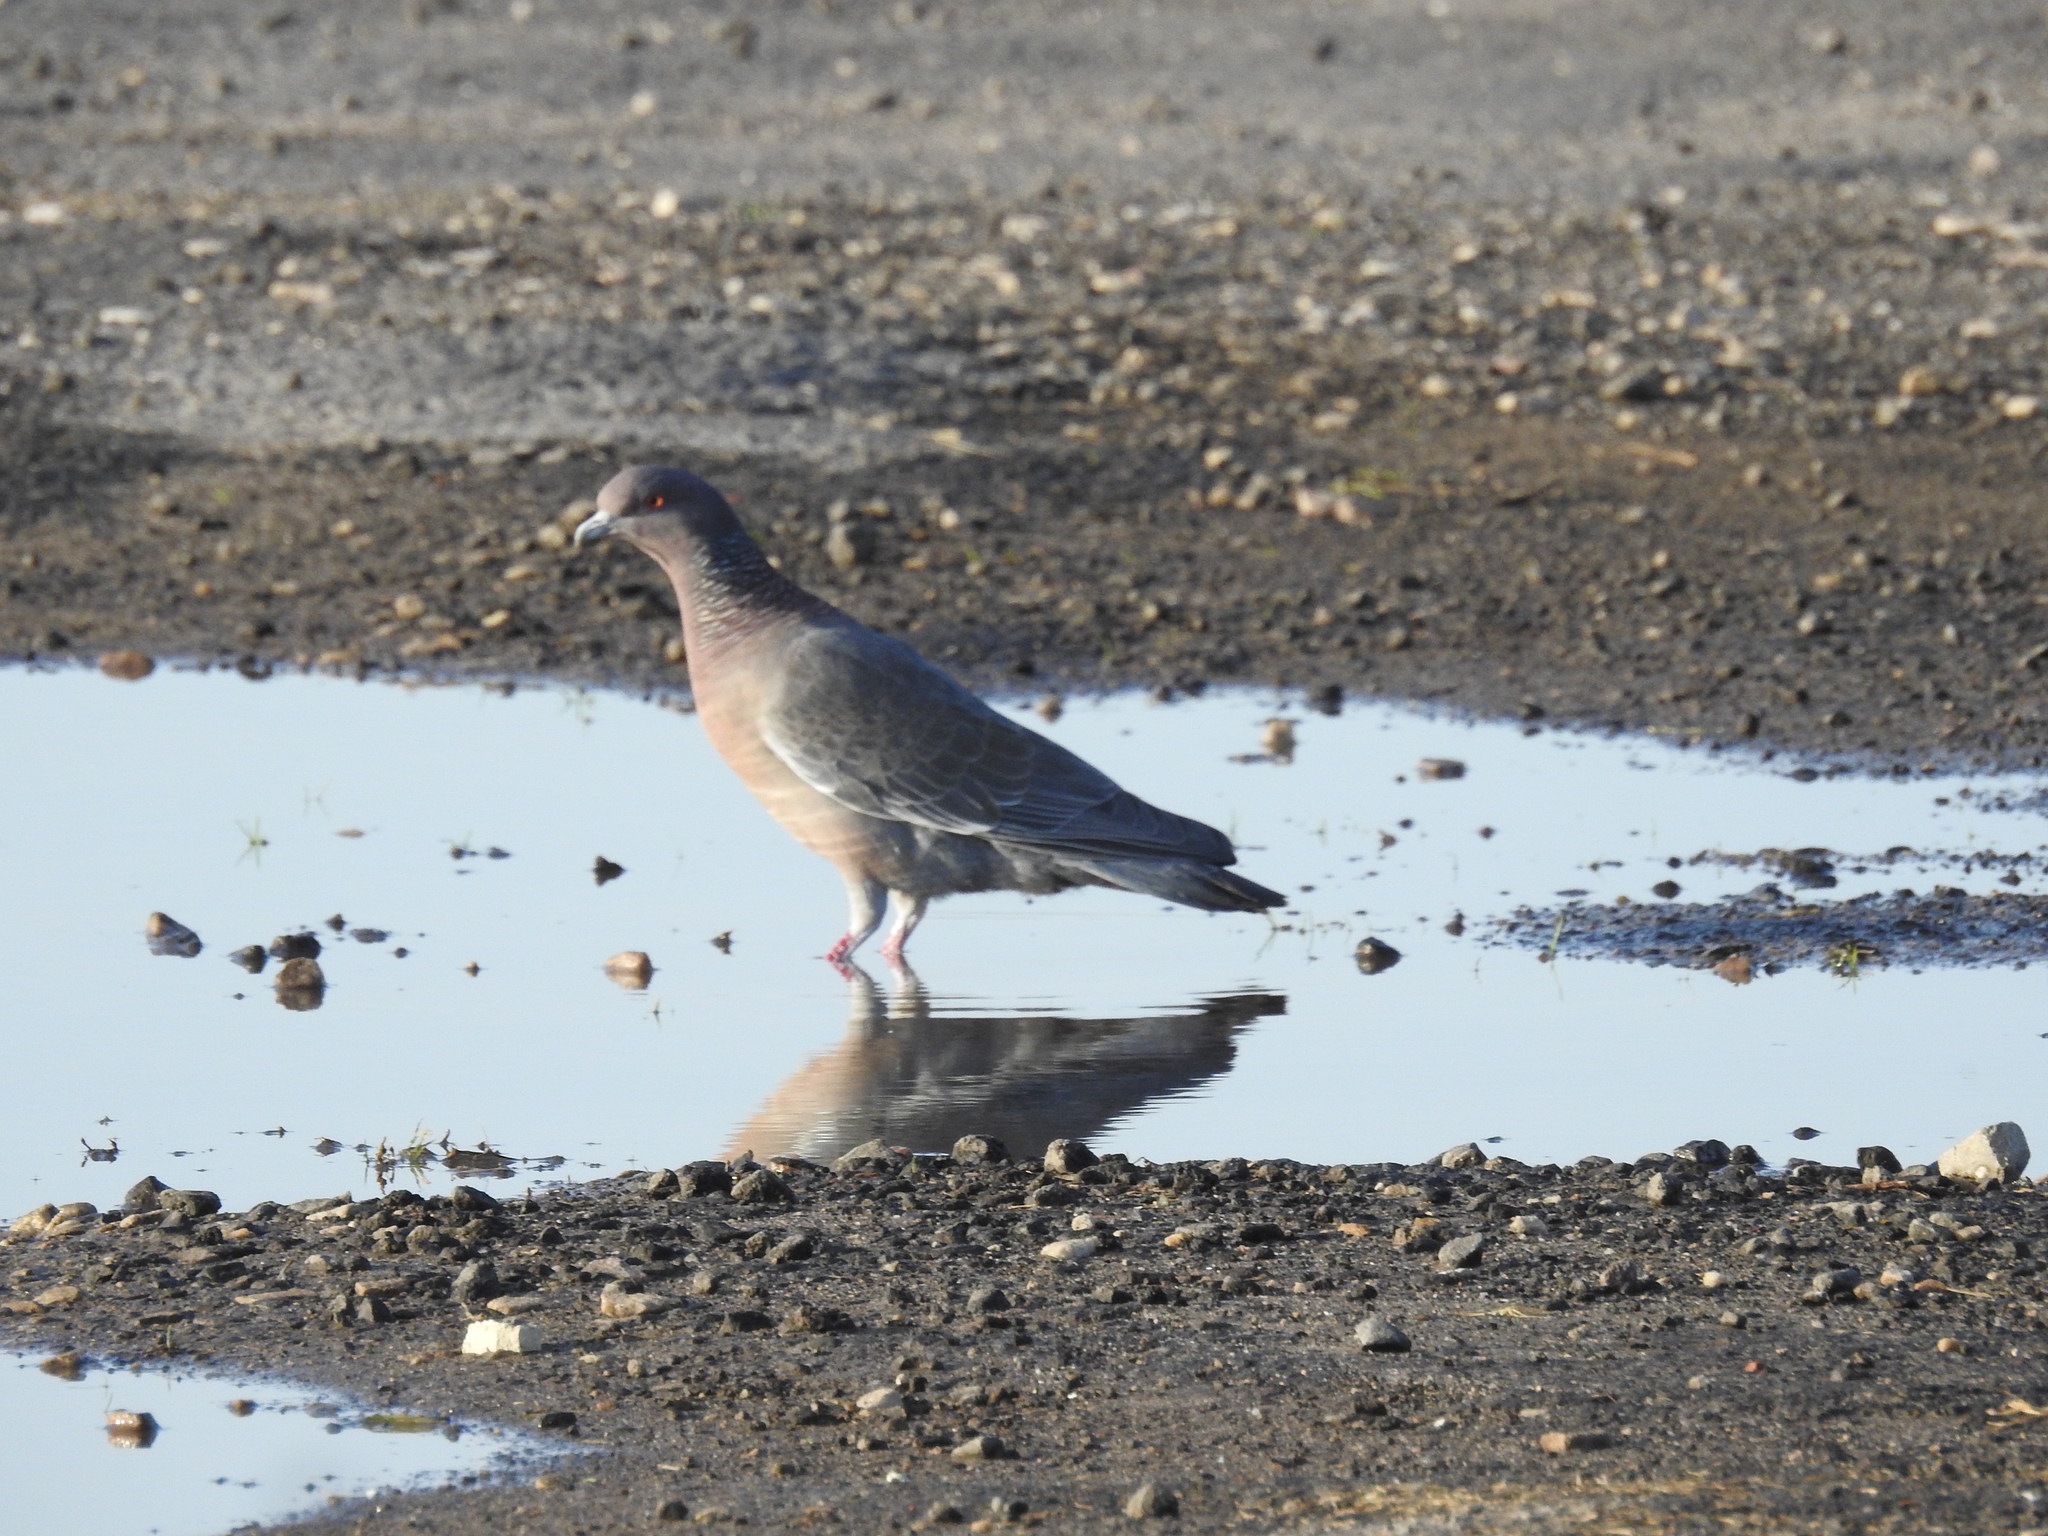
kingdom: Animalia
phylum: Chordata
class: Aves
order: Columbiformes
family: Columbidae
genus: Patagioenas
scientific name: Patagioenas picazuro
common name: Picazuro pigeon
